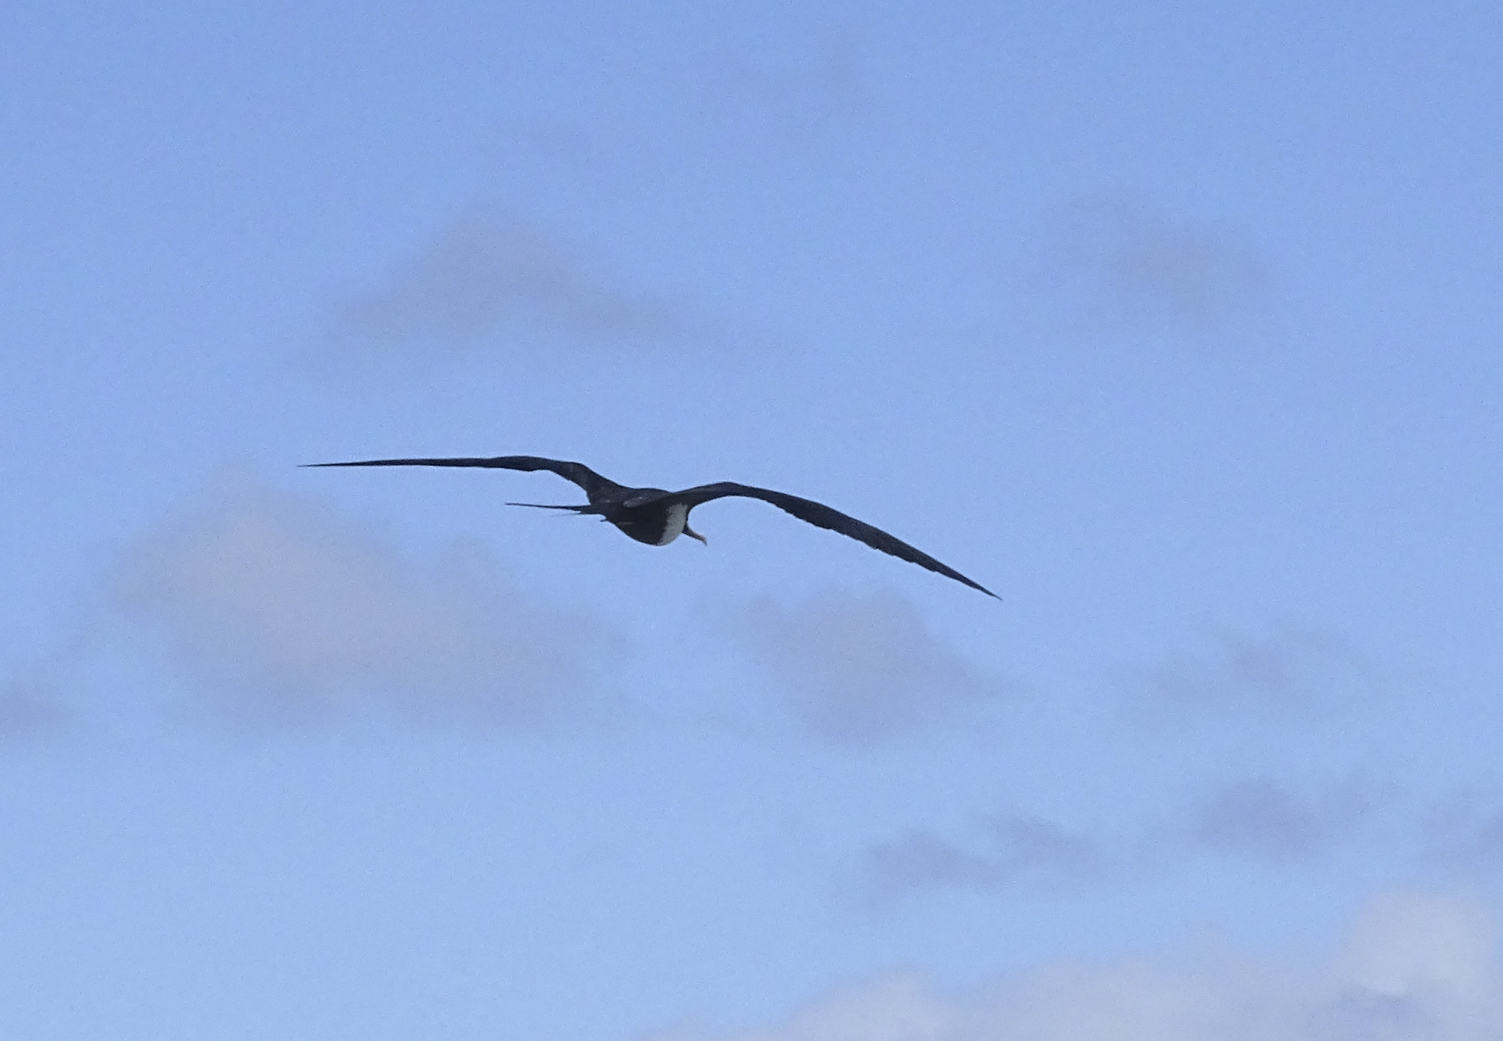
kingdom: Animalia
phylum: Chordata
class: Aves
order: Suliformes
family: Fregatidae
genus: Fregata
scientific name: Fregata minor
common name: Great frigatebird
